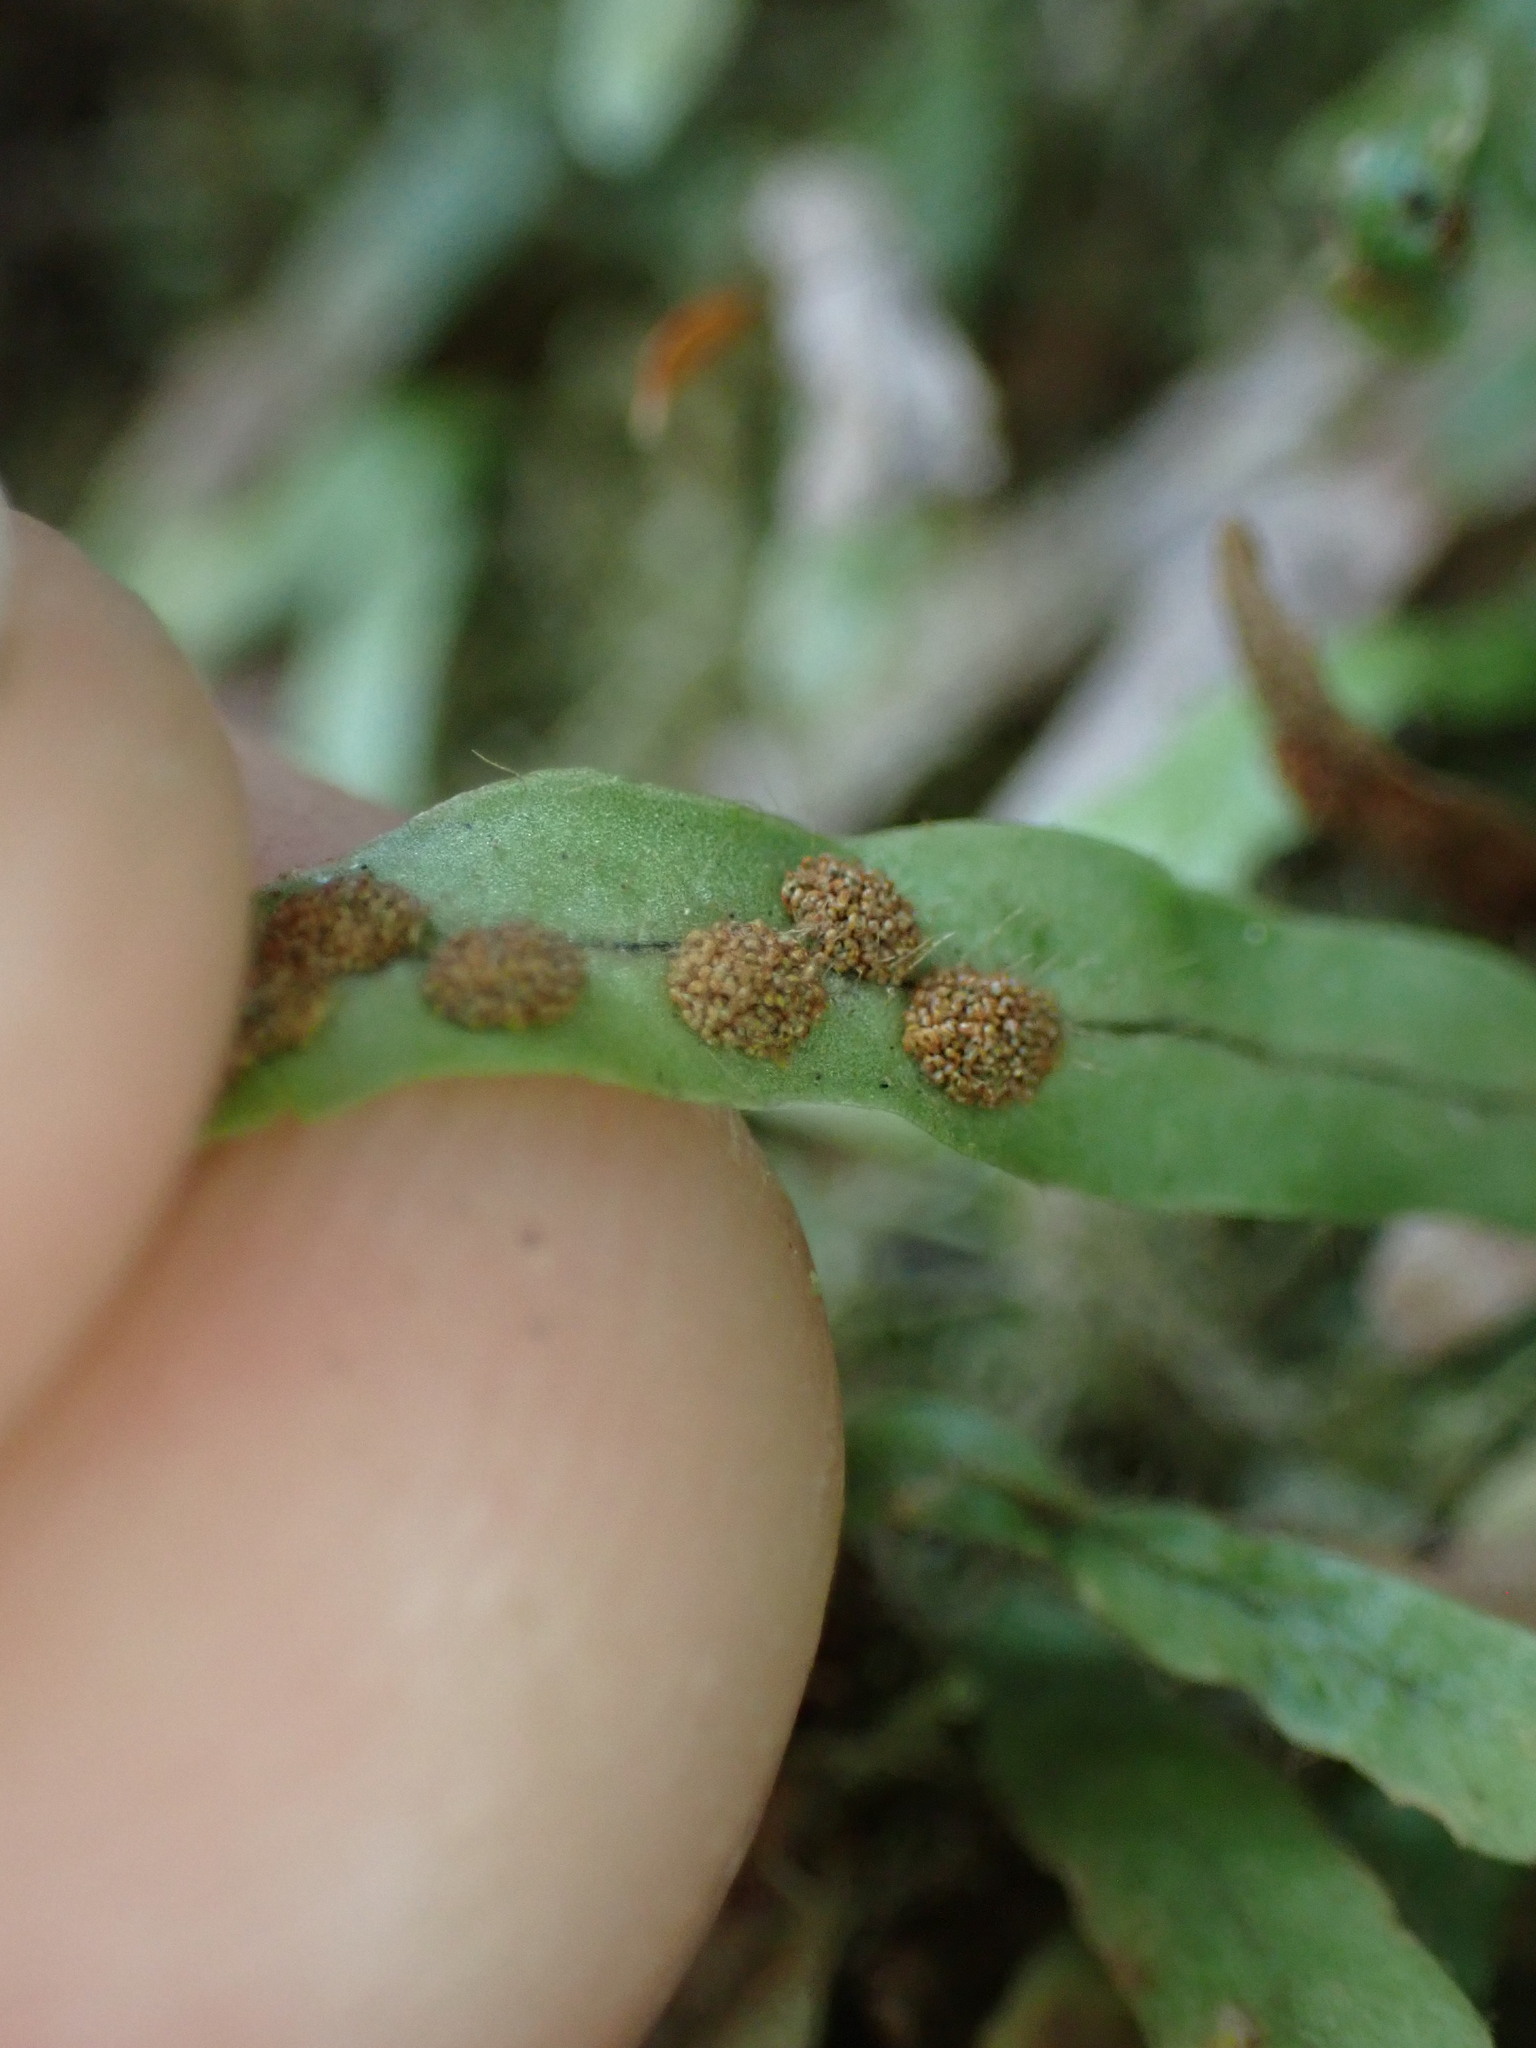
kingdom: Plantae
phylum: Tracheophyta
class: Polypodiopsida
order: Polypodiales
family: Polypodiaceae
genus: Notogrammitis
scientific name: Notogrammitis ciliata
